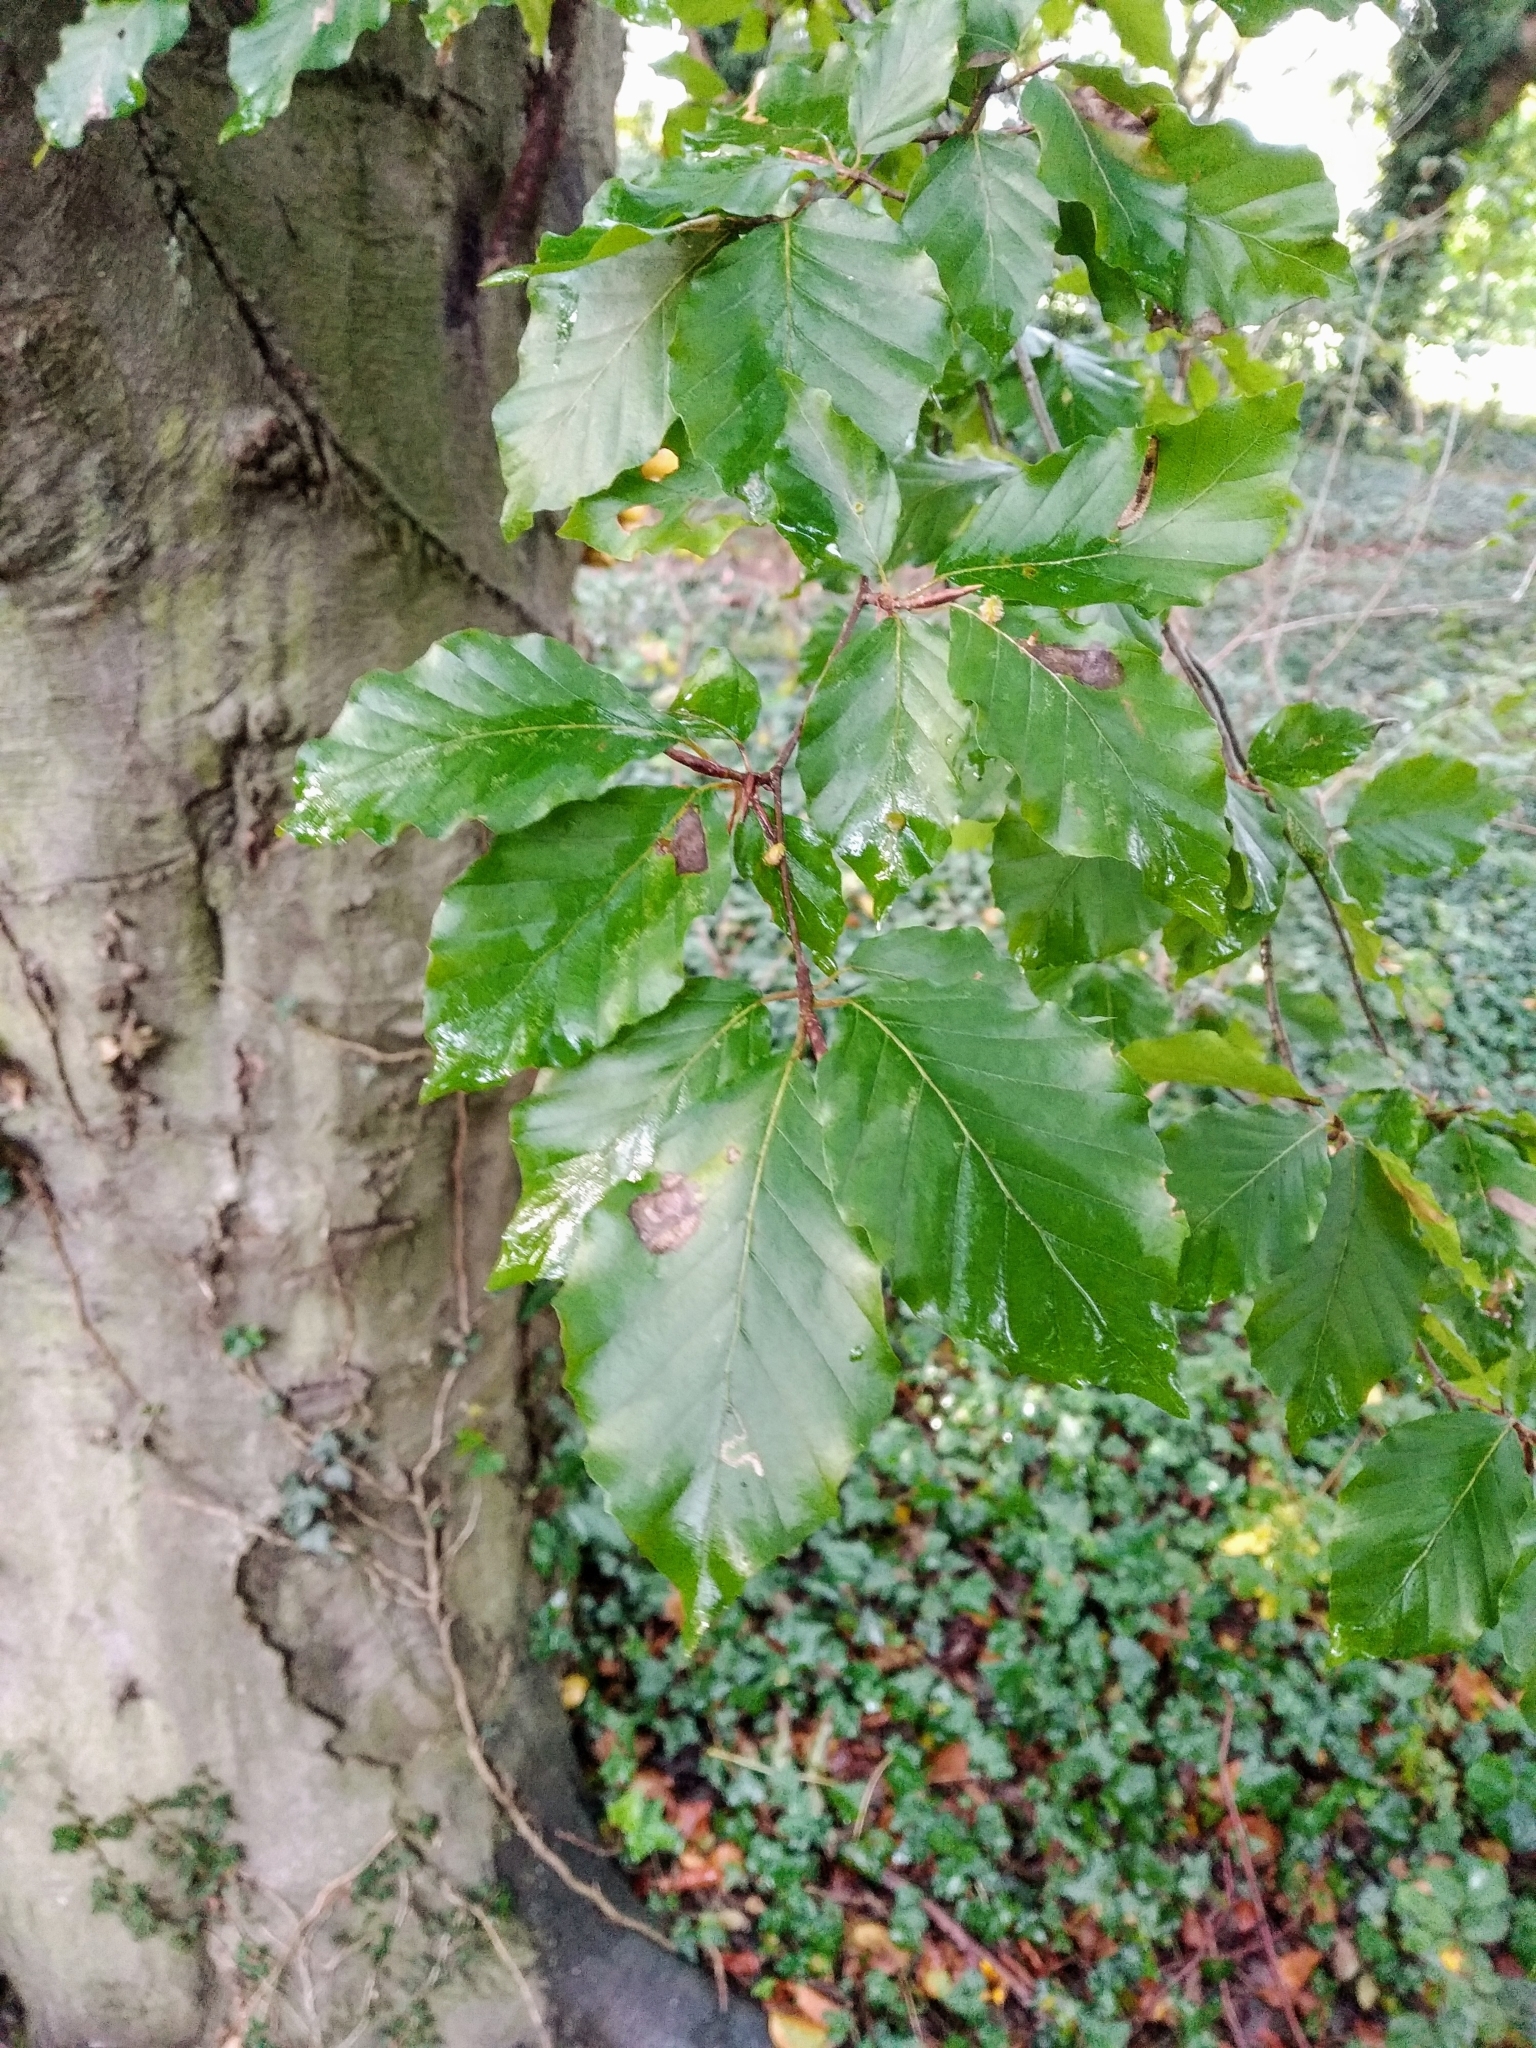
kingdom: Plantae
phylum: Tracheophyta
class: Magnoliopsida
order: Fagales
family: Fagaceae
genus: Fagus
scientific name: Fagus sylvatica
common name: Beech
